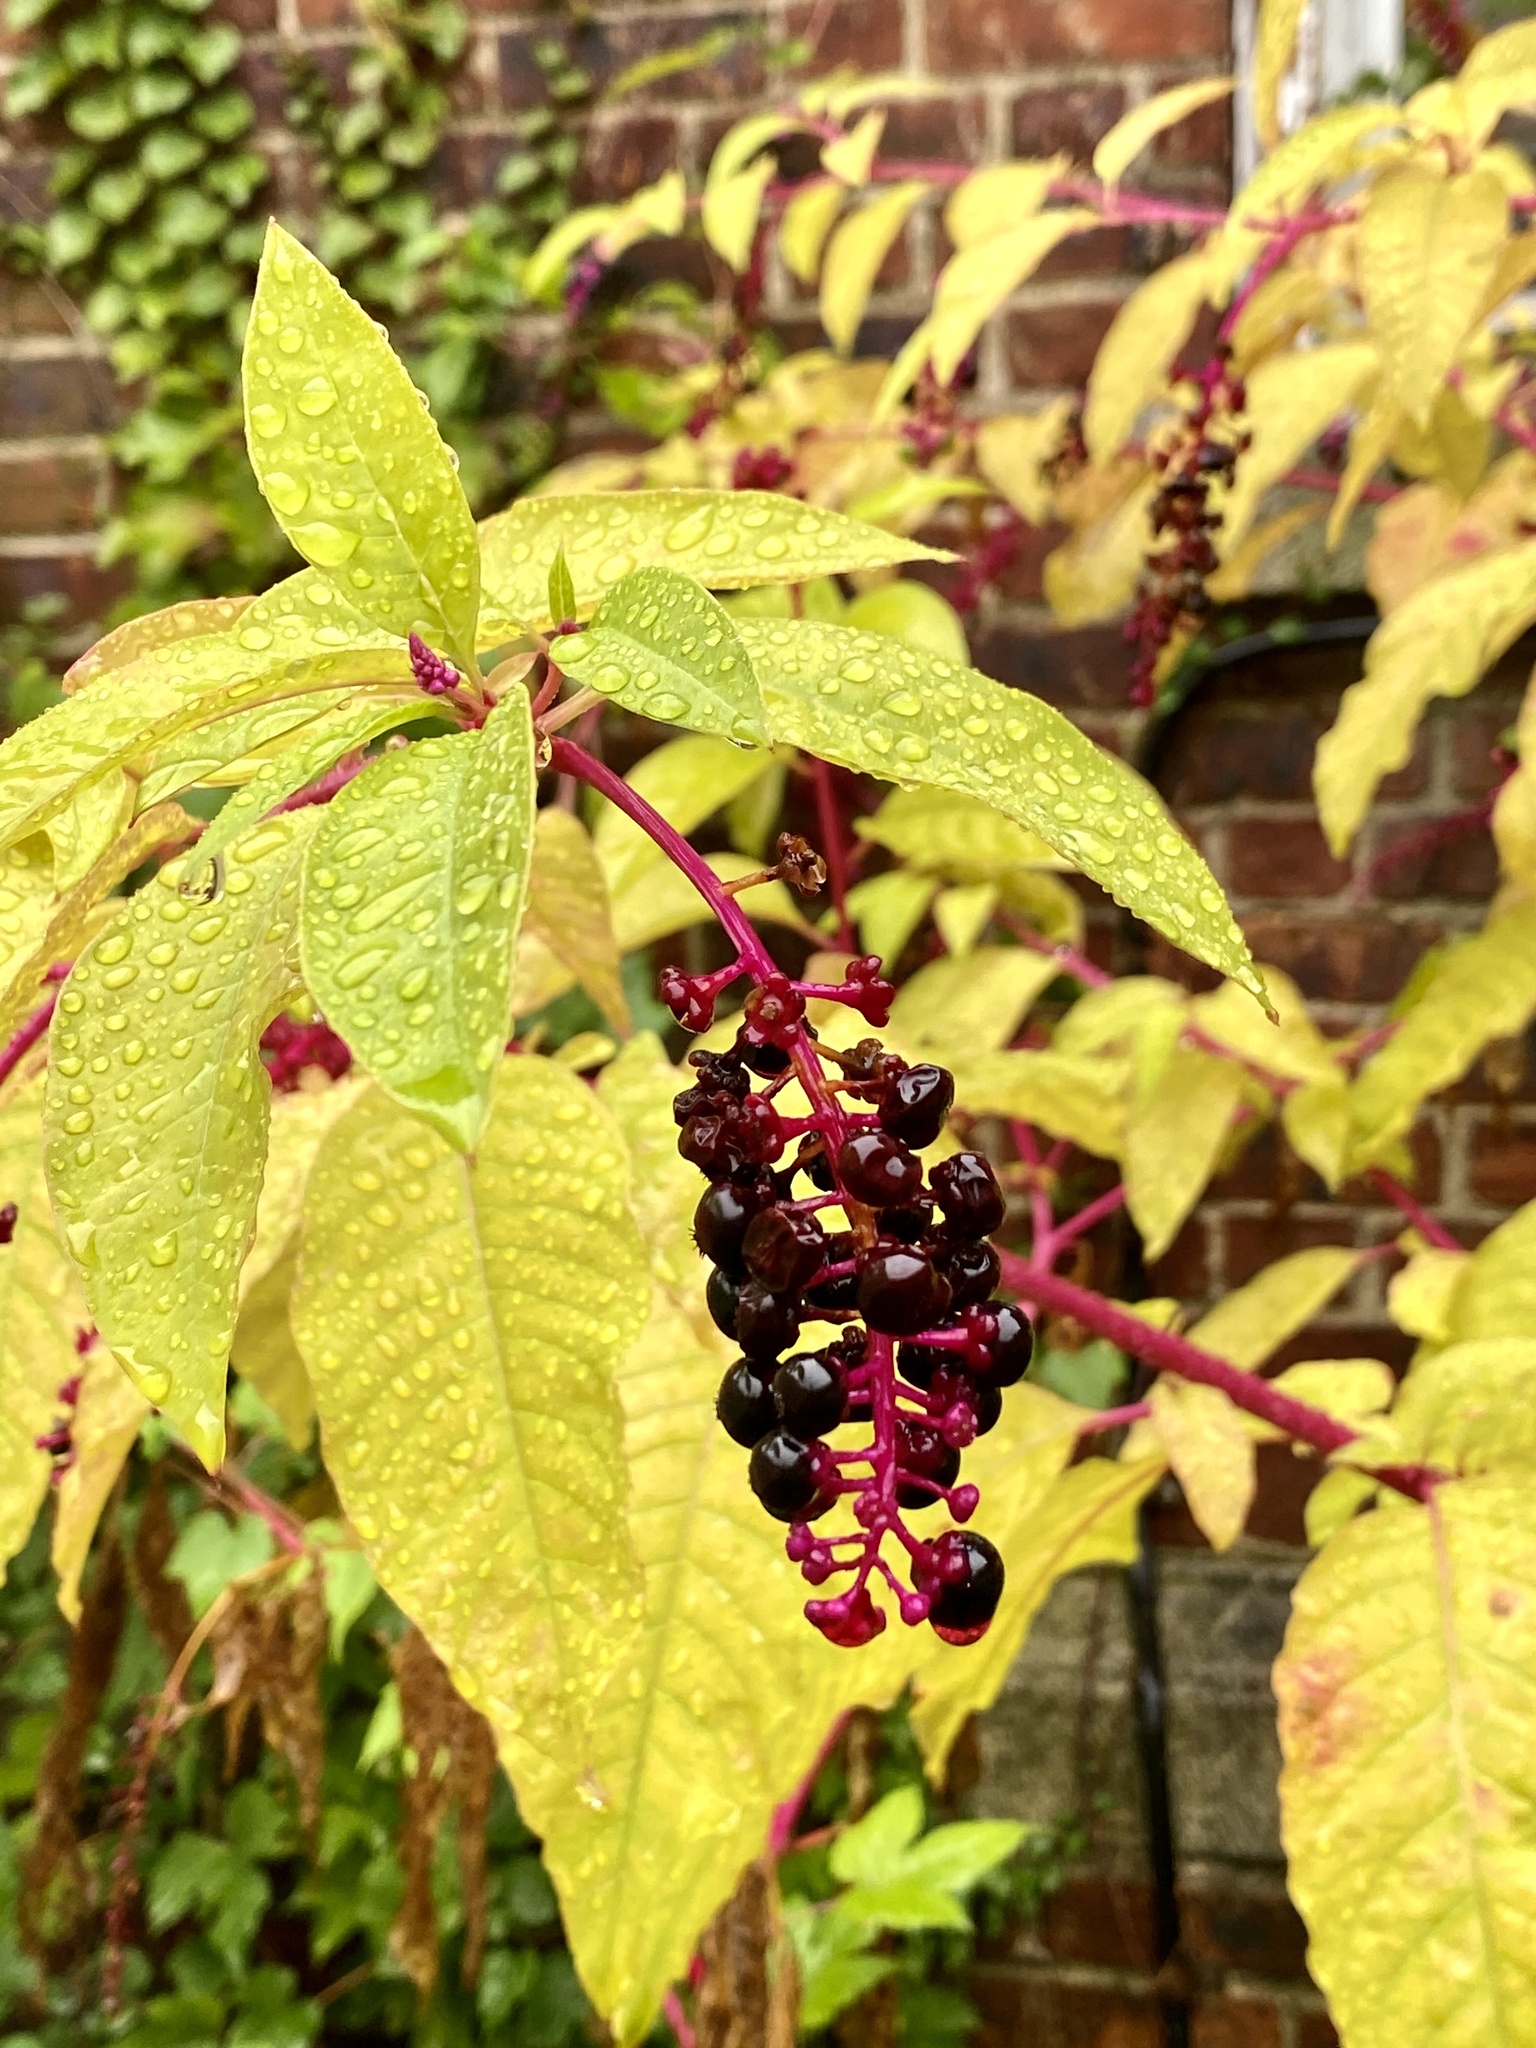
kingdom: Plantae
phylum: Tracheophyta
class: Magnoliopsida
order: Caryophyllales
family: Phytolaccaceae
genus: Phytolacca
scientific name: Phytolacca americana
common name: American pokeweed
